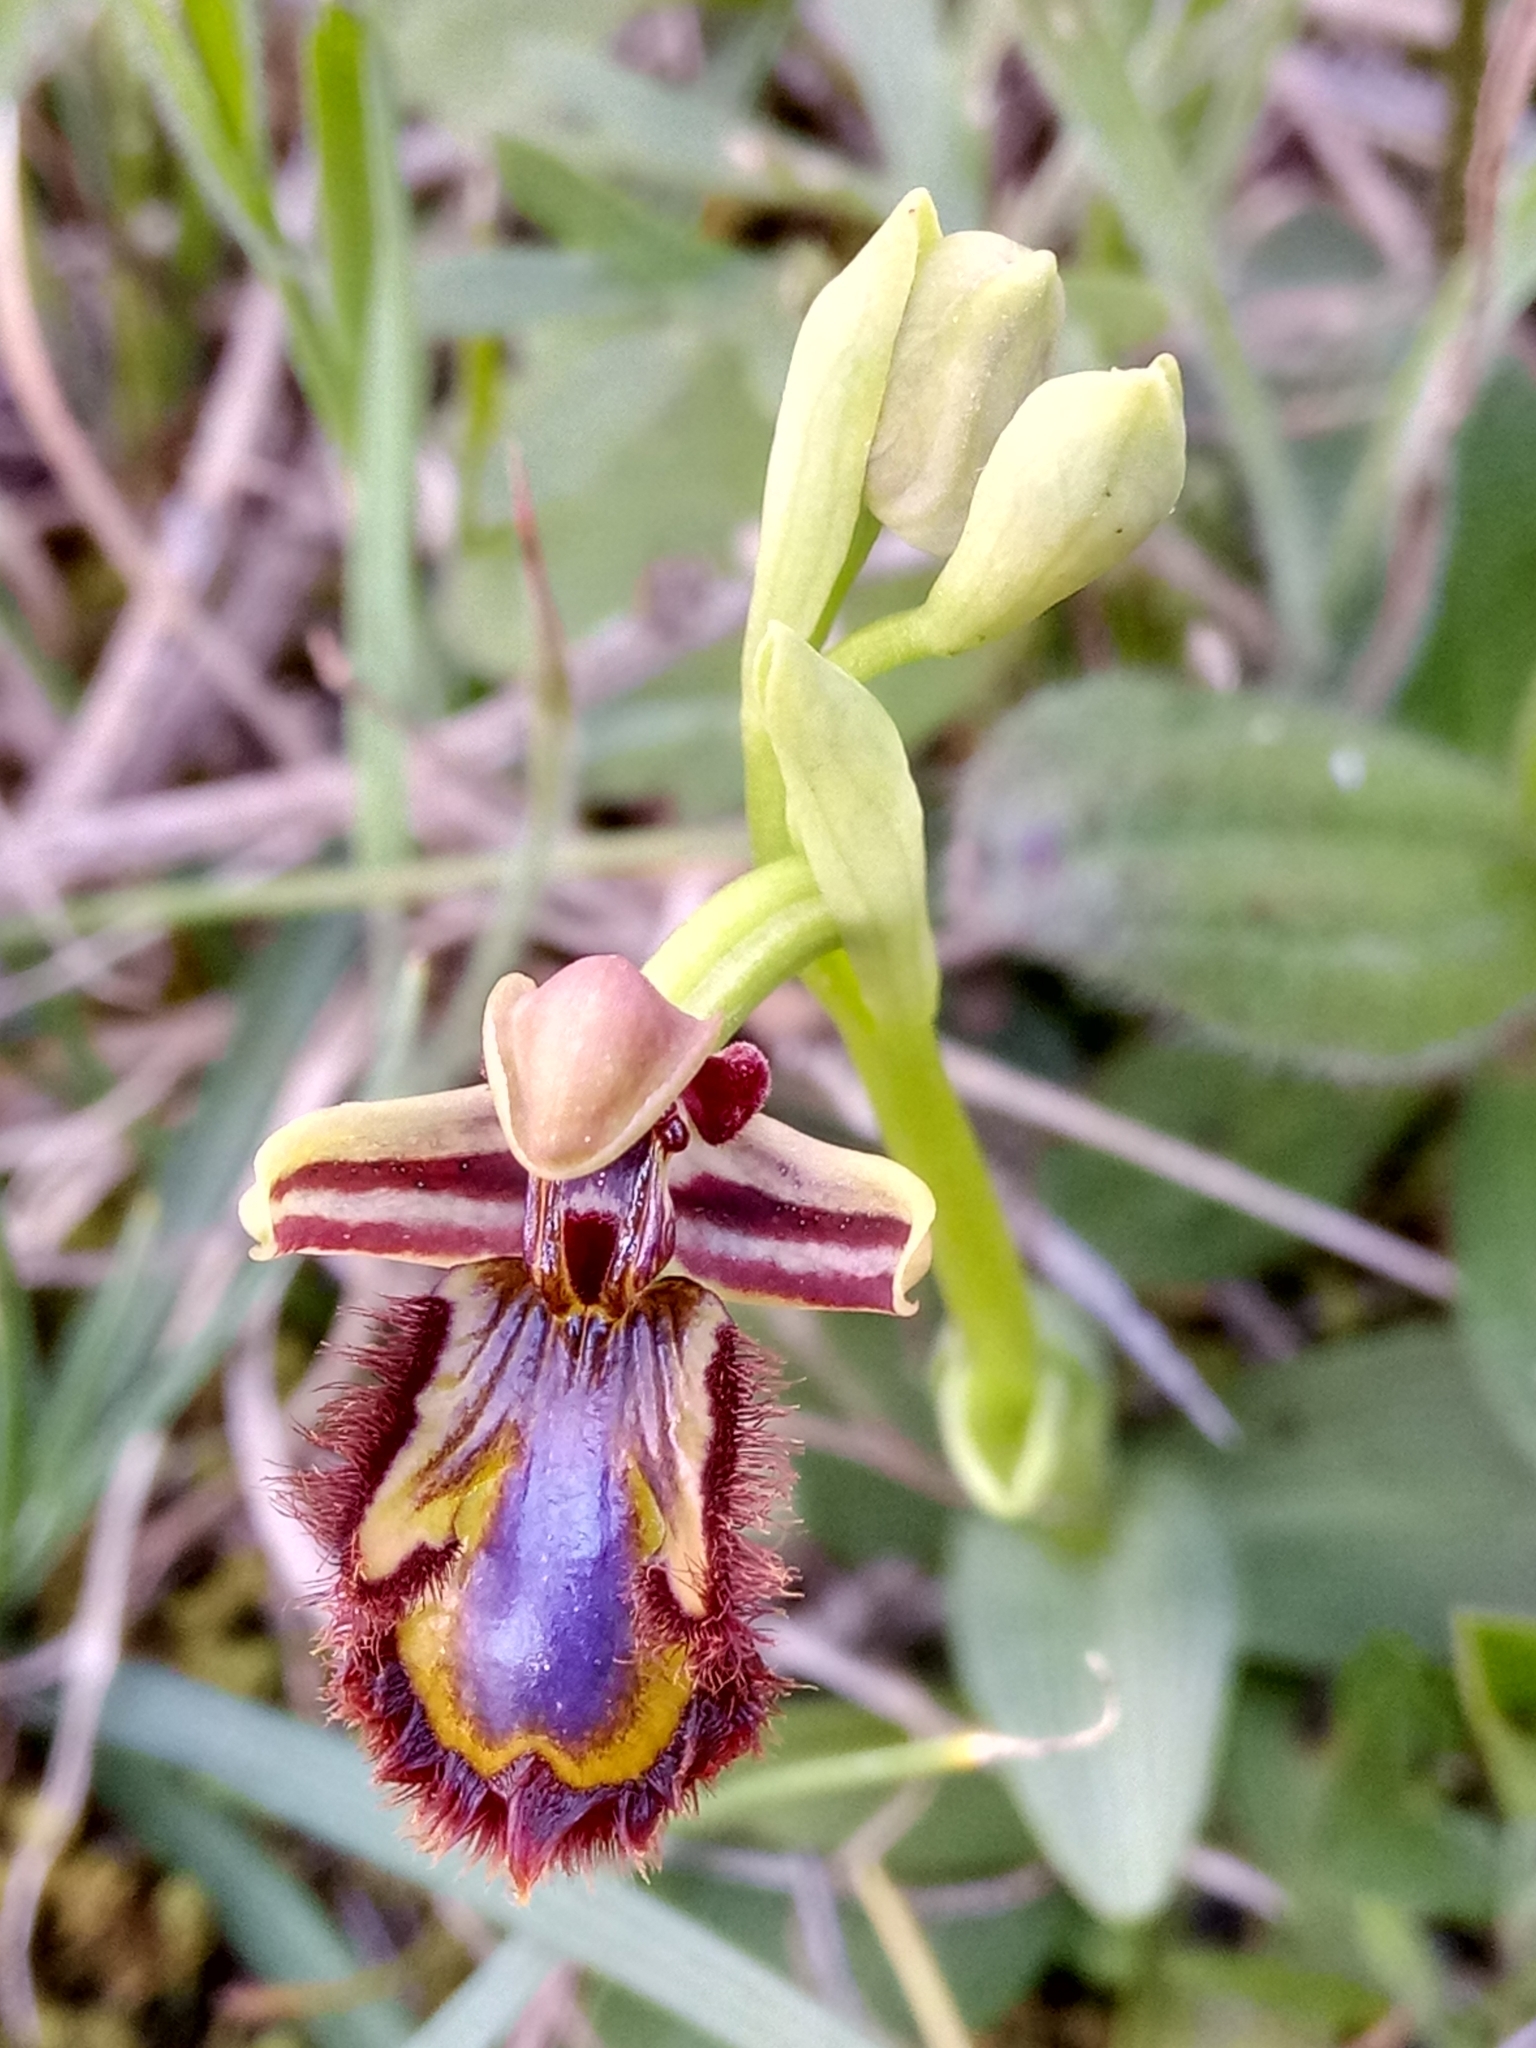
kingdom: Plantae
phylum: Tracheophyta
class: Liliopsida
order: Asparagales
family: Orchidaceae
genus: Ophrys
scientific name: Ophrys speculum
